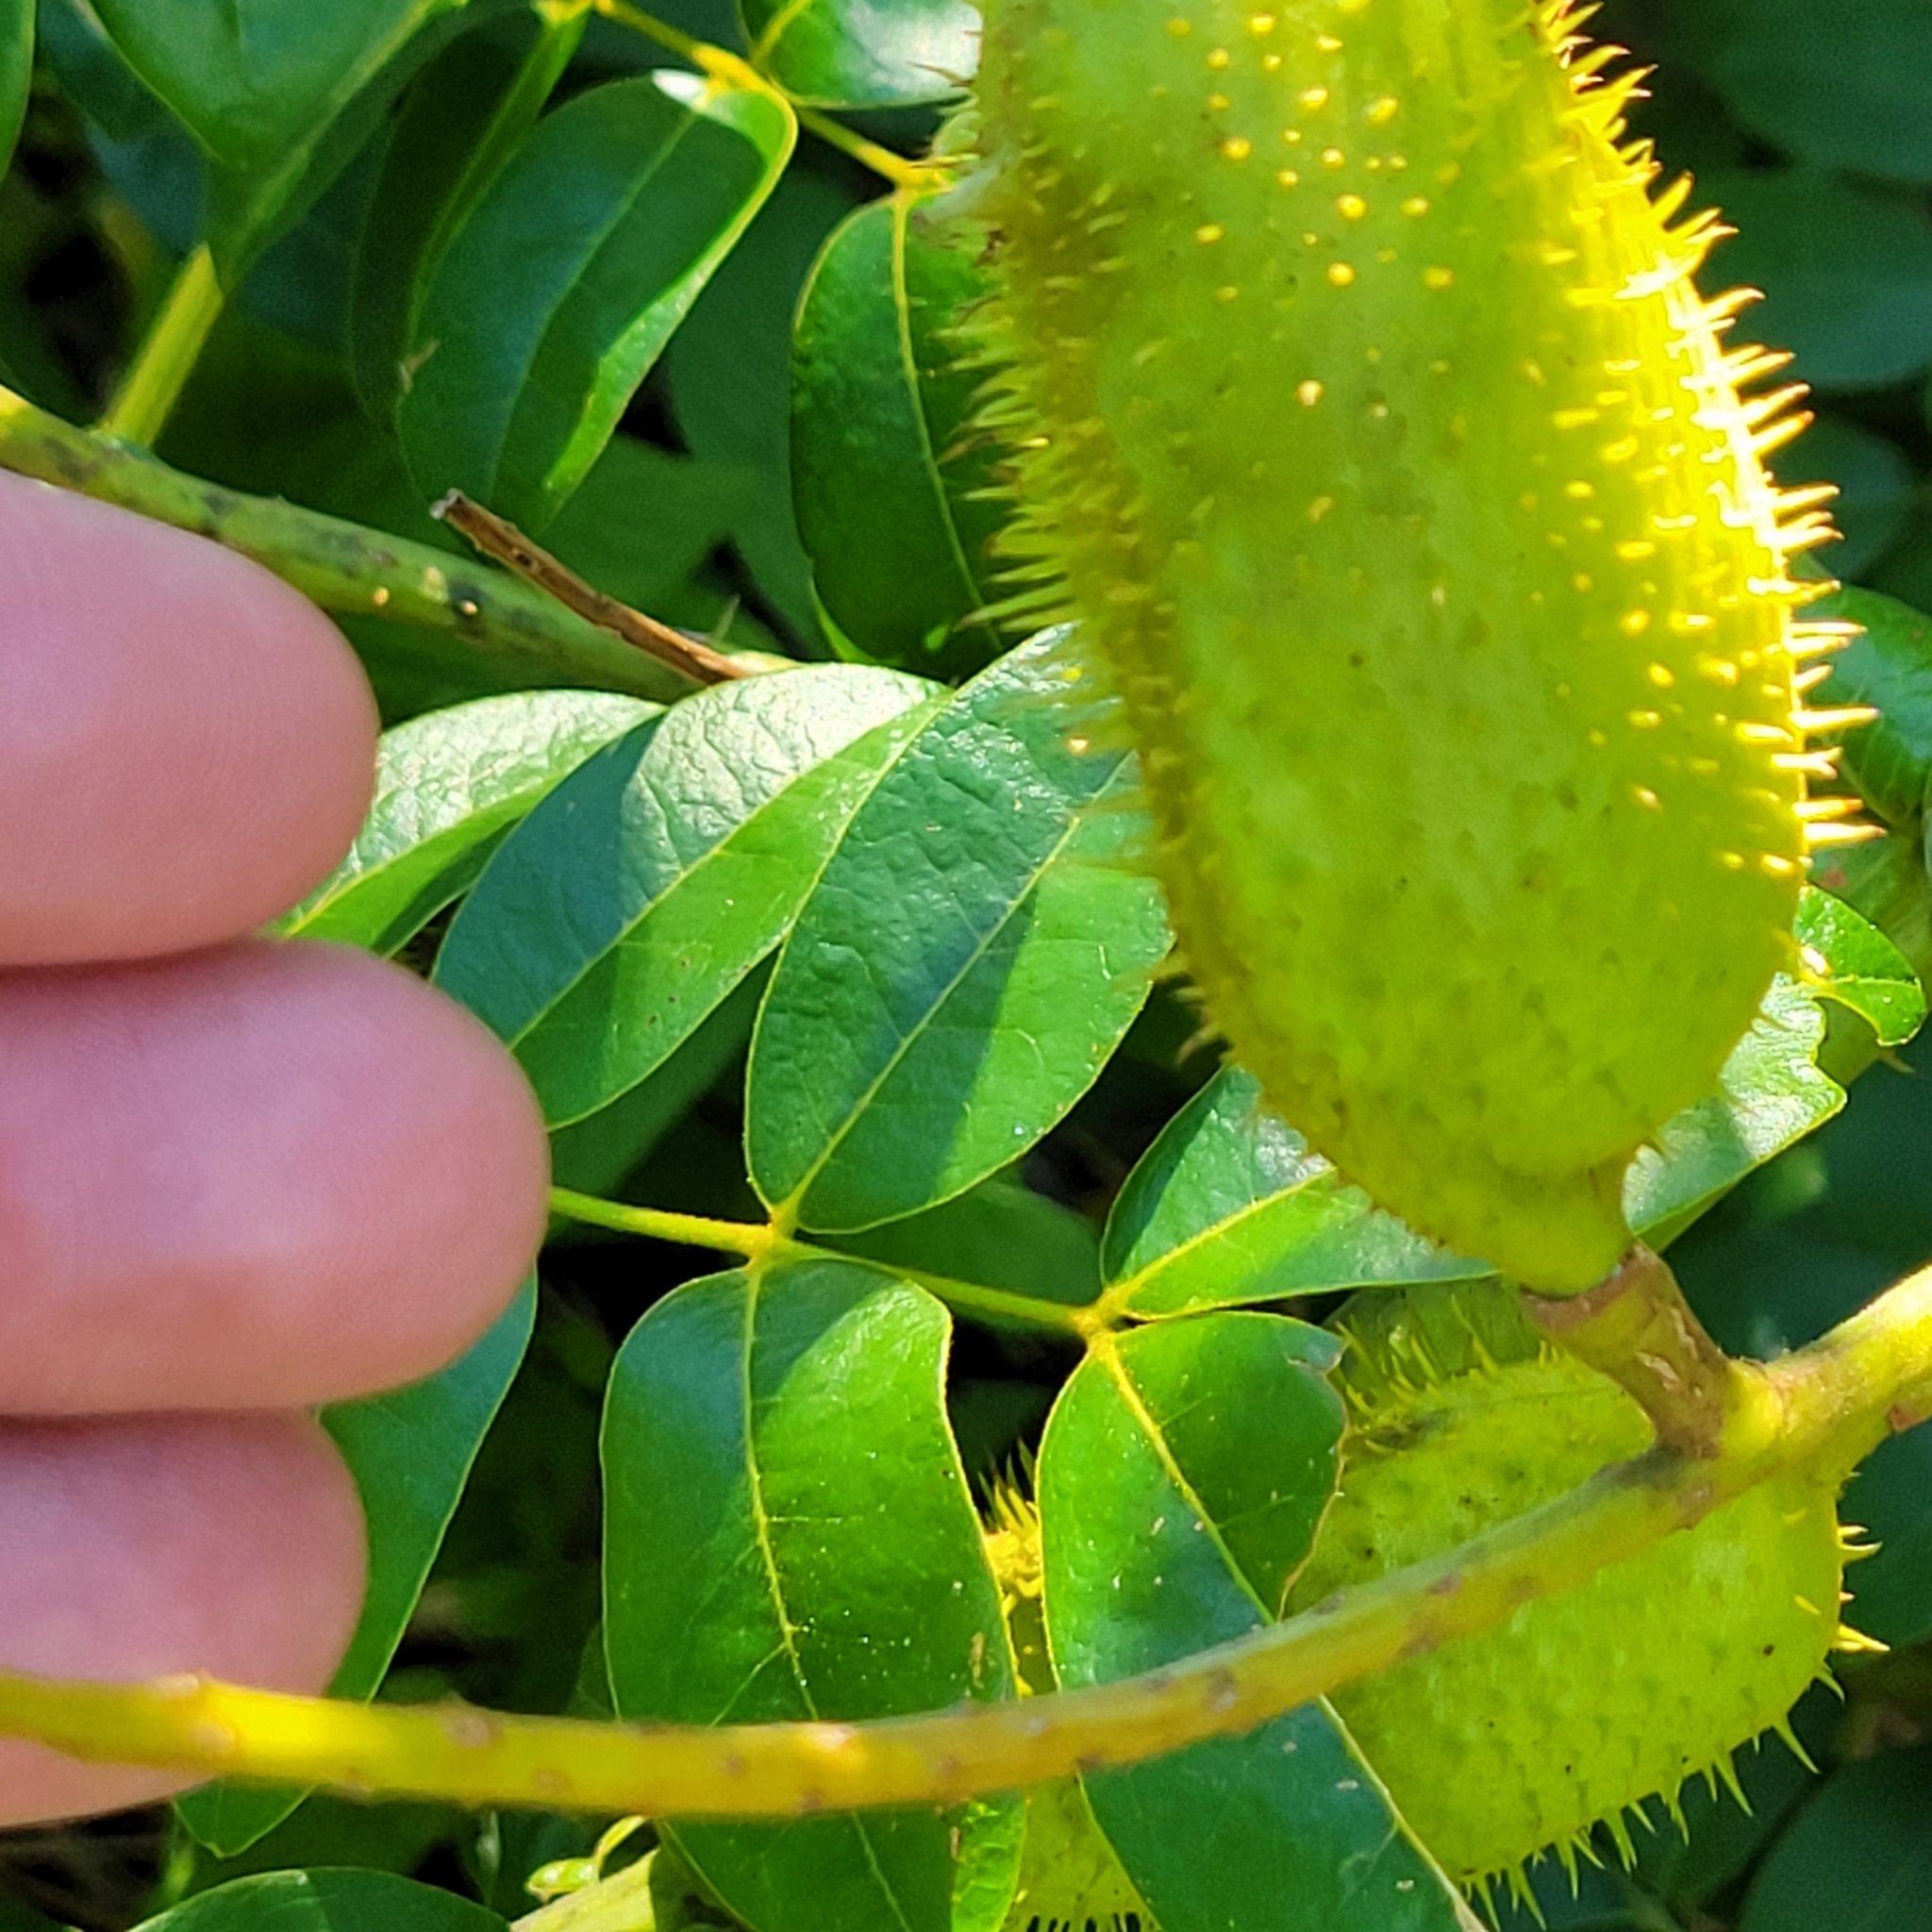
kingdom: Plantae
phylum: Tracheophyta
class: Magnoliopsida
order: Fabales
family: Fabaceae
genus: Guilandina
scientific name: Guilandina bonduc
